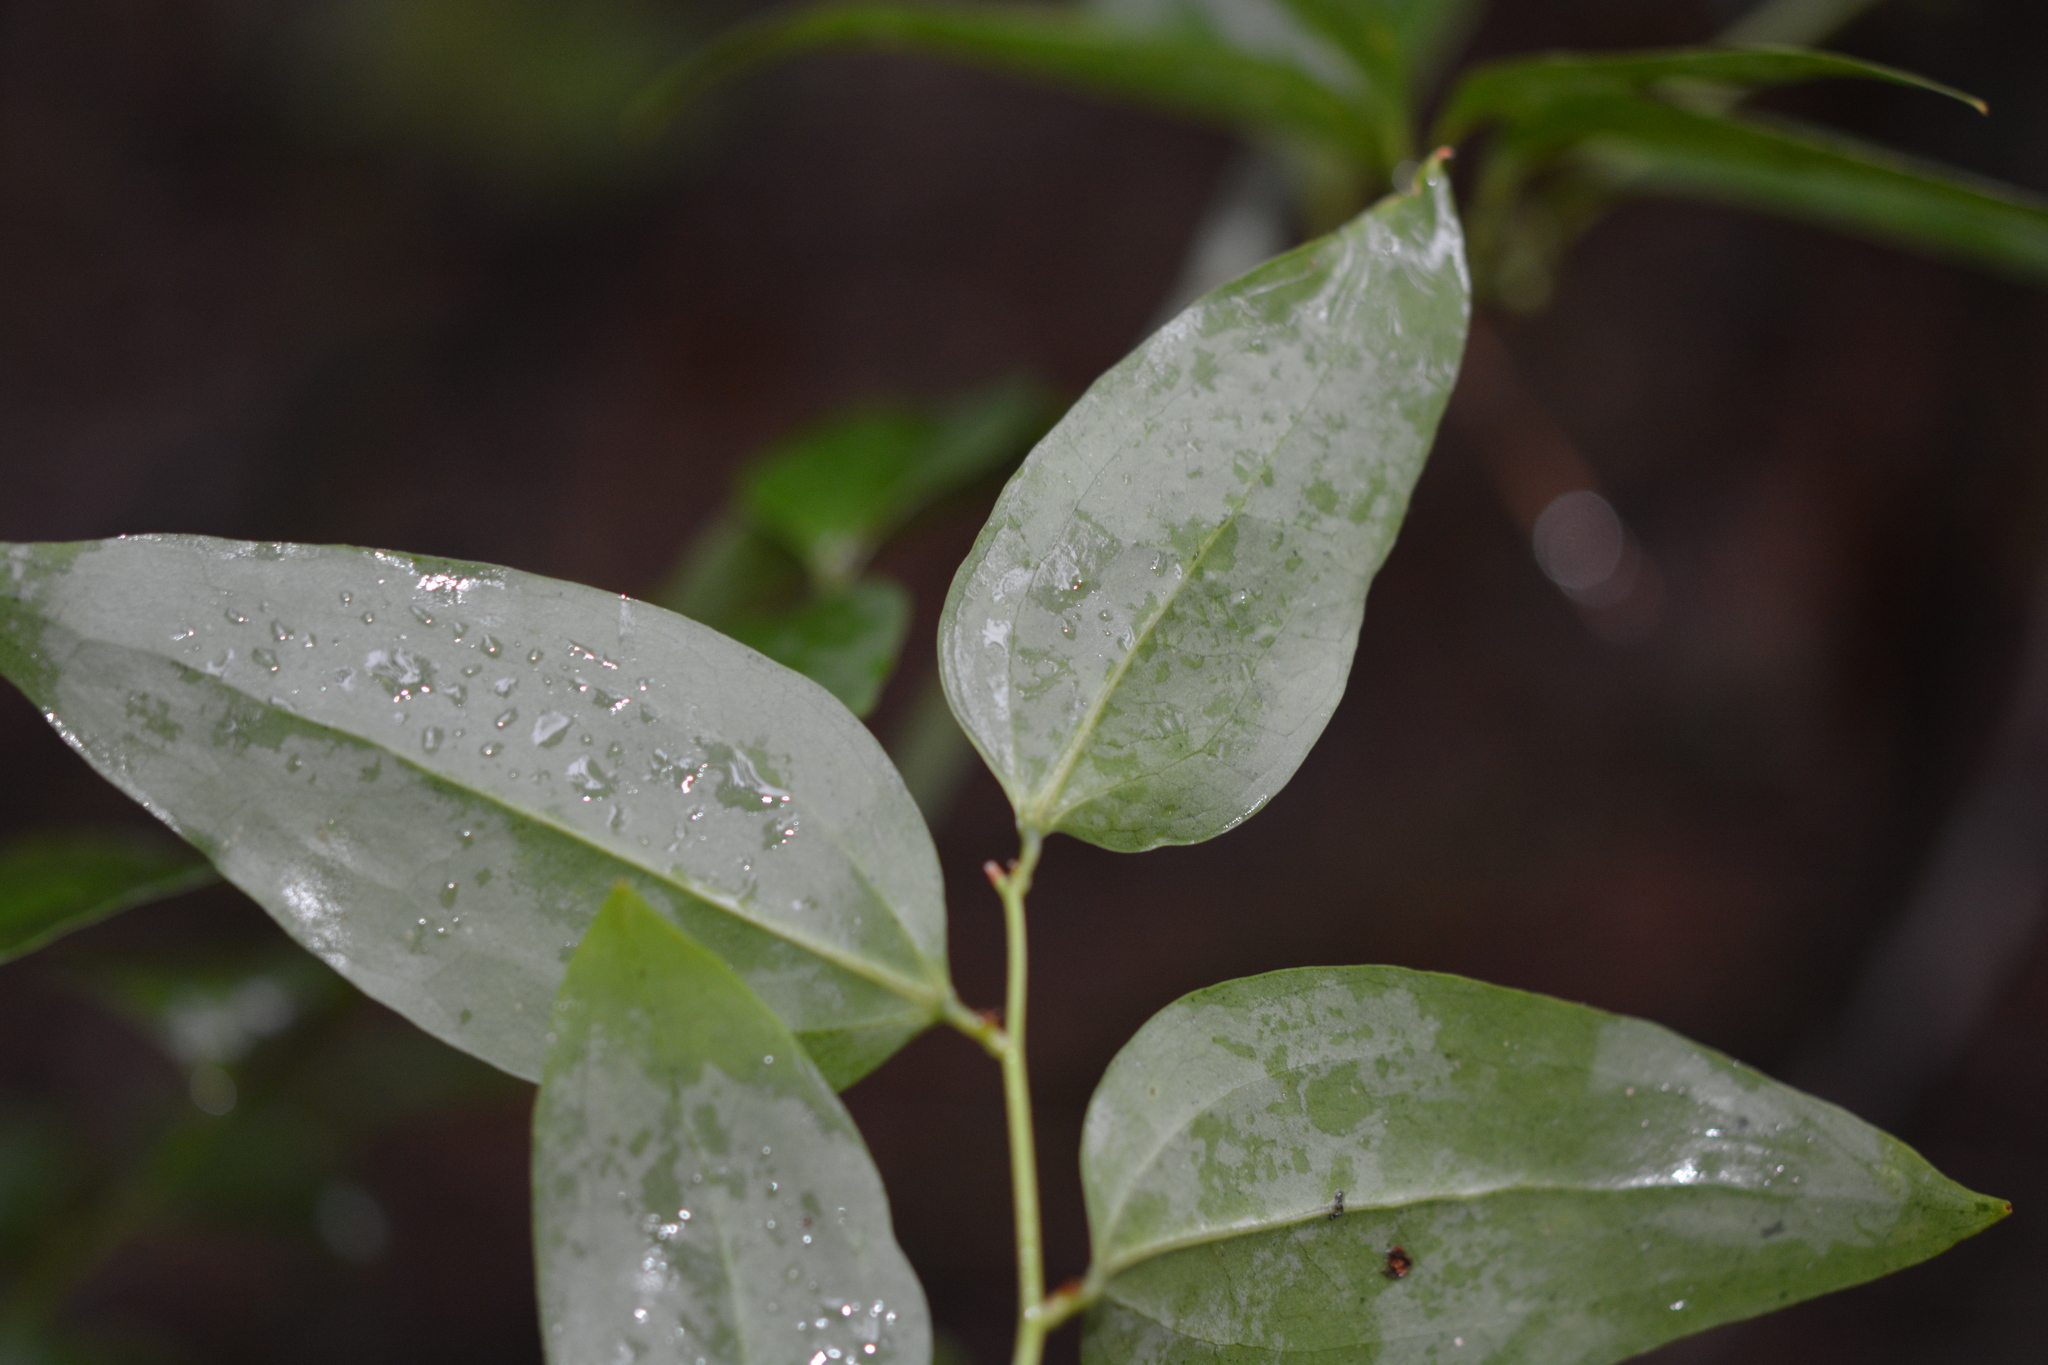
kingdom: Plantae
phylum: Tracheophyta
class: Liliopsida
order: Liliales
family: Smilacaceae
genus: Smilax
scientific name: Smilax glauca
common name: Cat greenbrier
